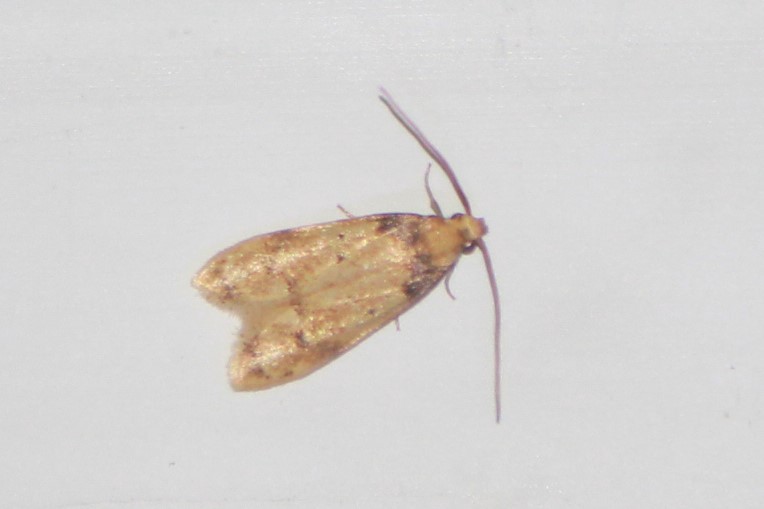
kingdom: Animalia
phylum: Arthropoda
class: Insecta
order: Lepidoptera
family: Autostichidae
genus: Gerdana
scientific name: Gerdana caritella
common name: Gerdana moth
